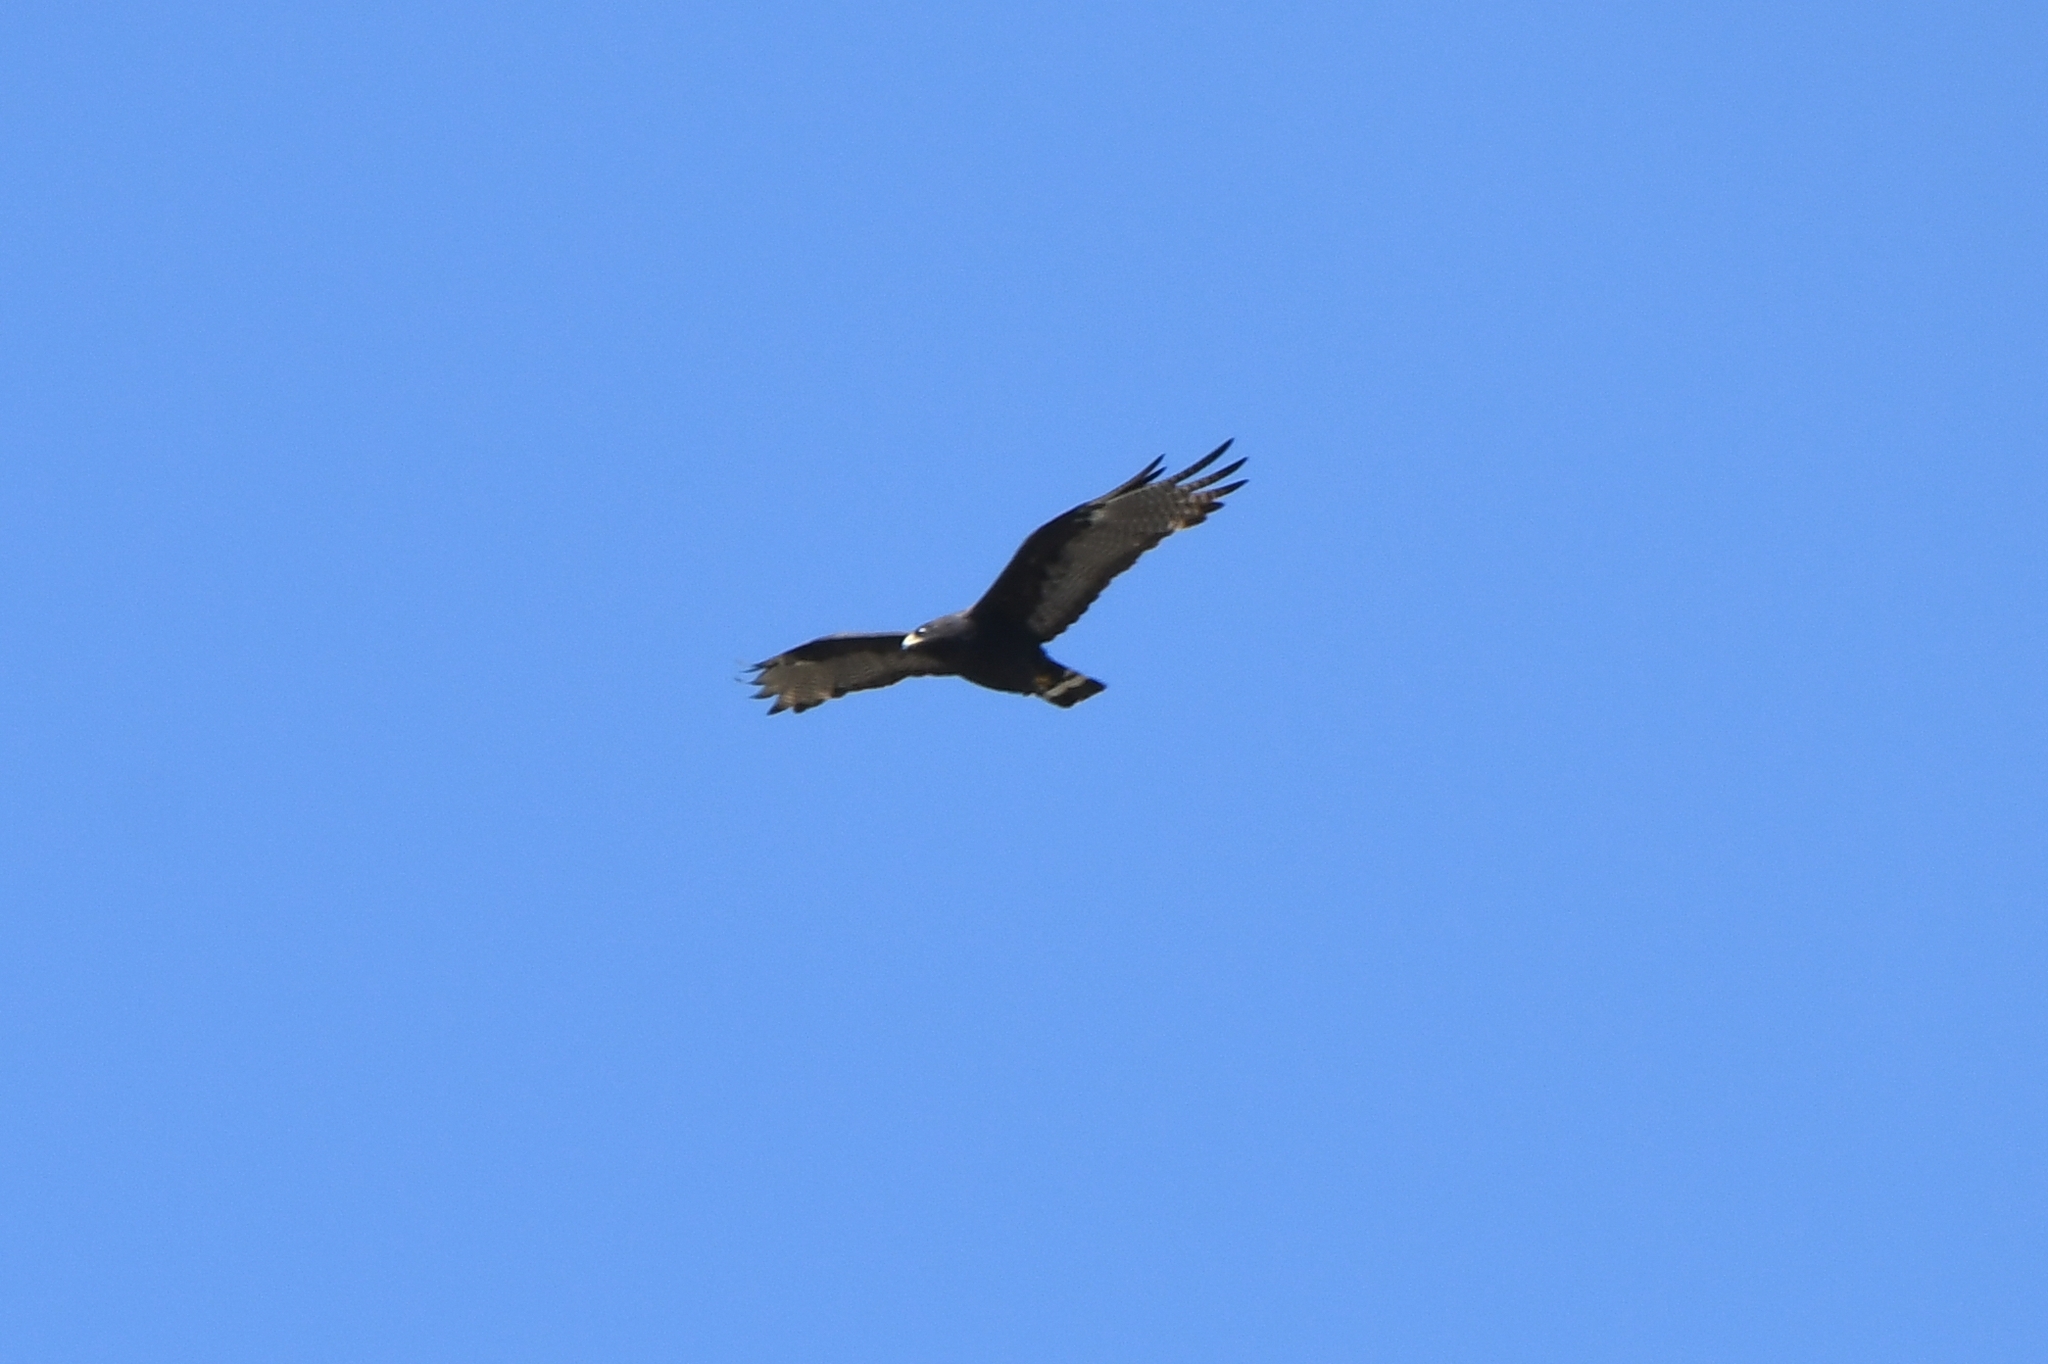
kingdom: Animalia
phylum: Chordata
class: Aves
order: Accipitriformes
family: Accipitridae
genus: Buteo
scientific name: Buteo albonotatus
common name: Zone-tailed hawk
